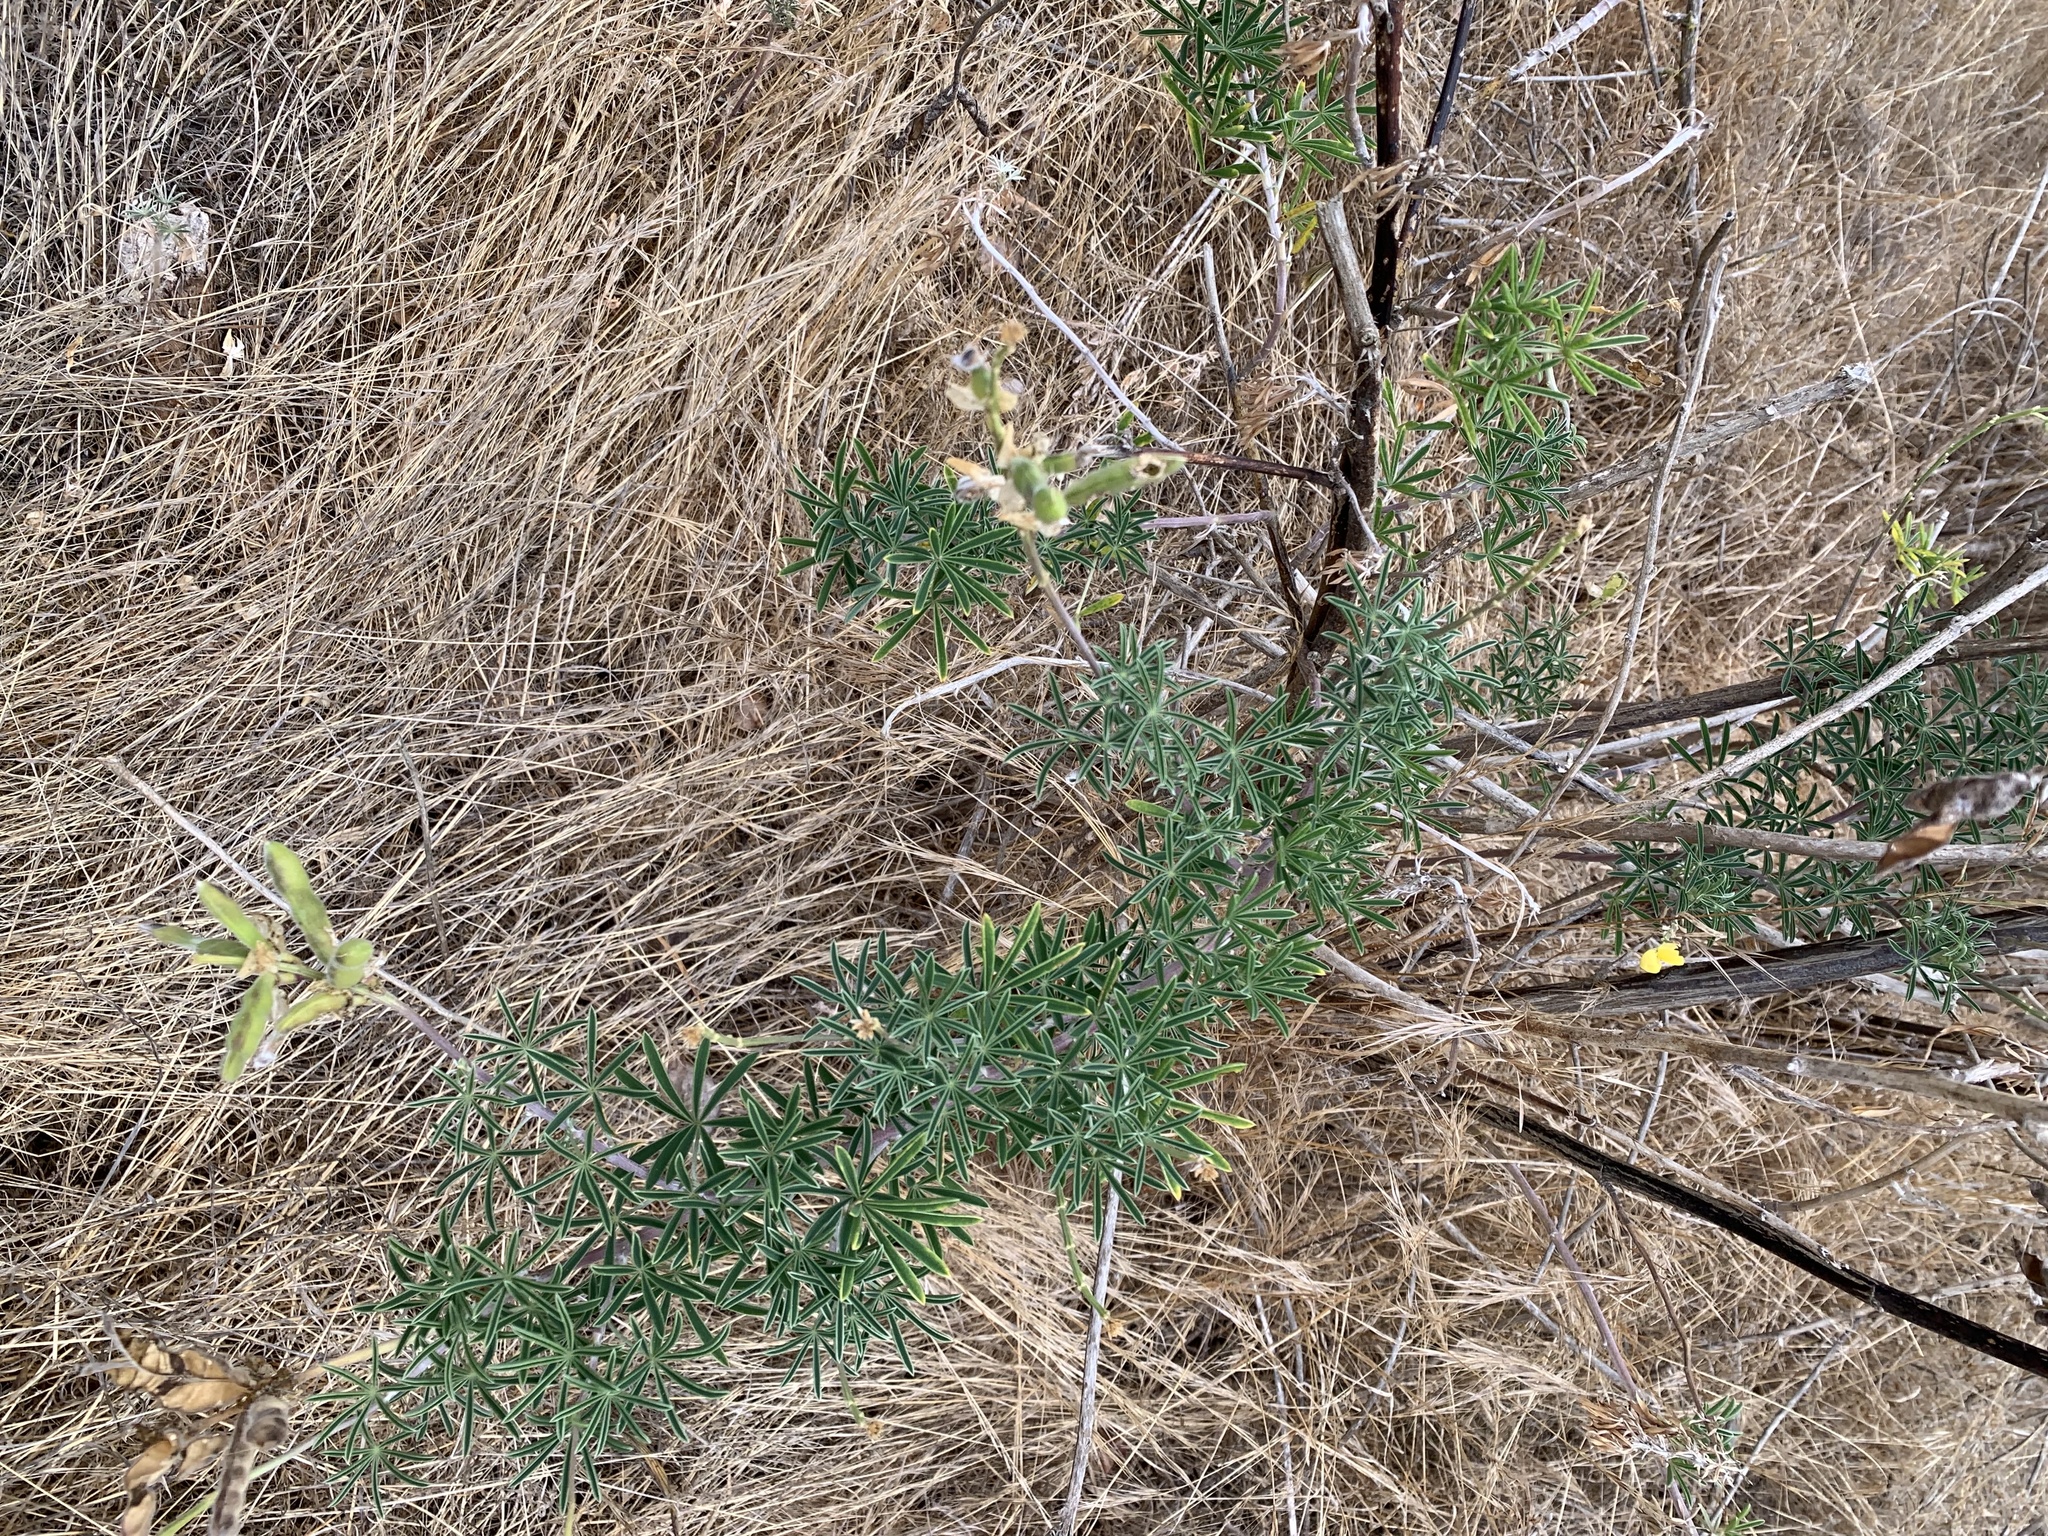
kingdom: Plantae
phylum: Tracheophyta
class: Magnoliopsida
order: Fabales
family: Fabaceae
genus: Lupinus
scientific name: Lupinus arboreus
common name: Yellow bush lupine
